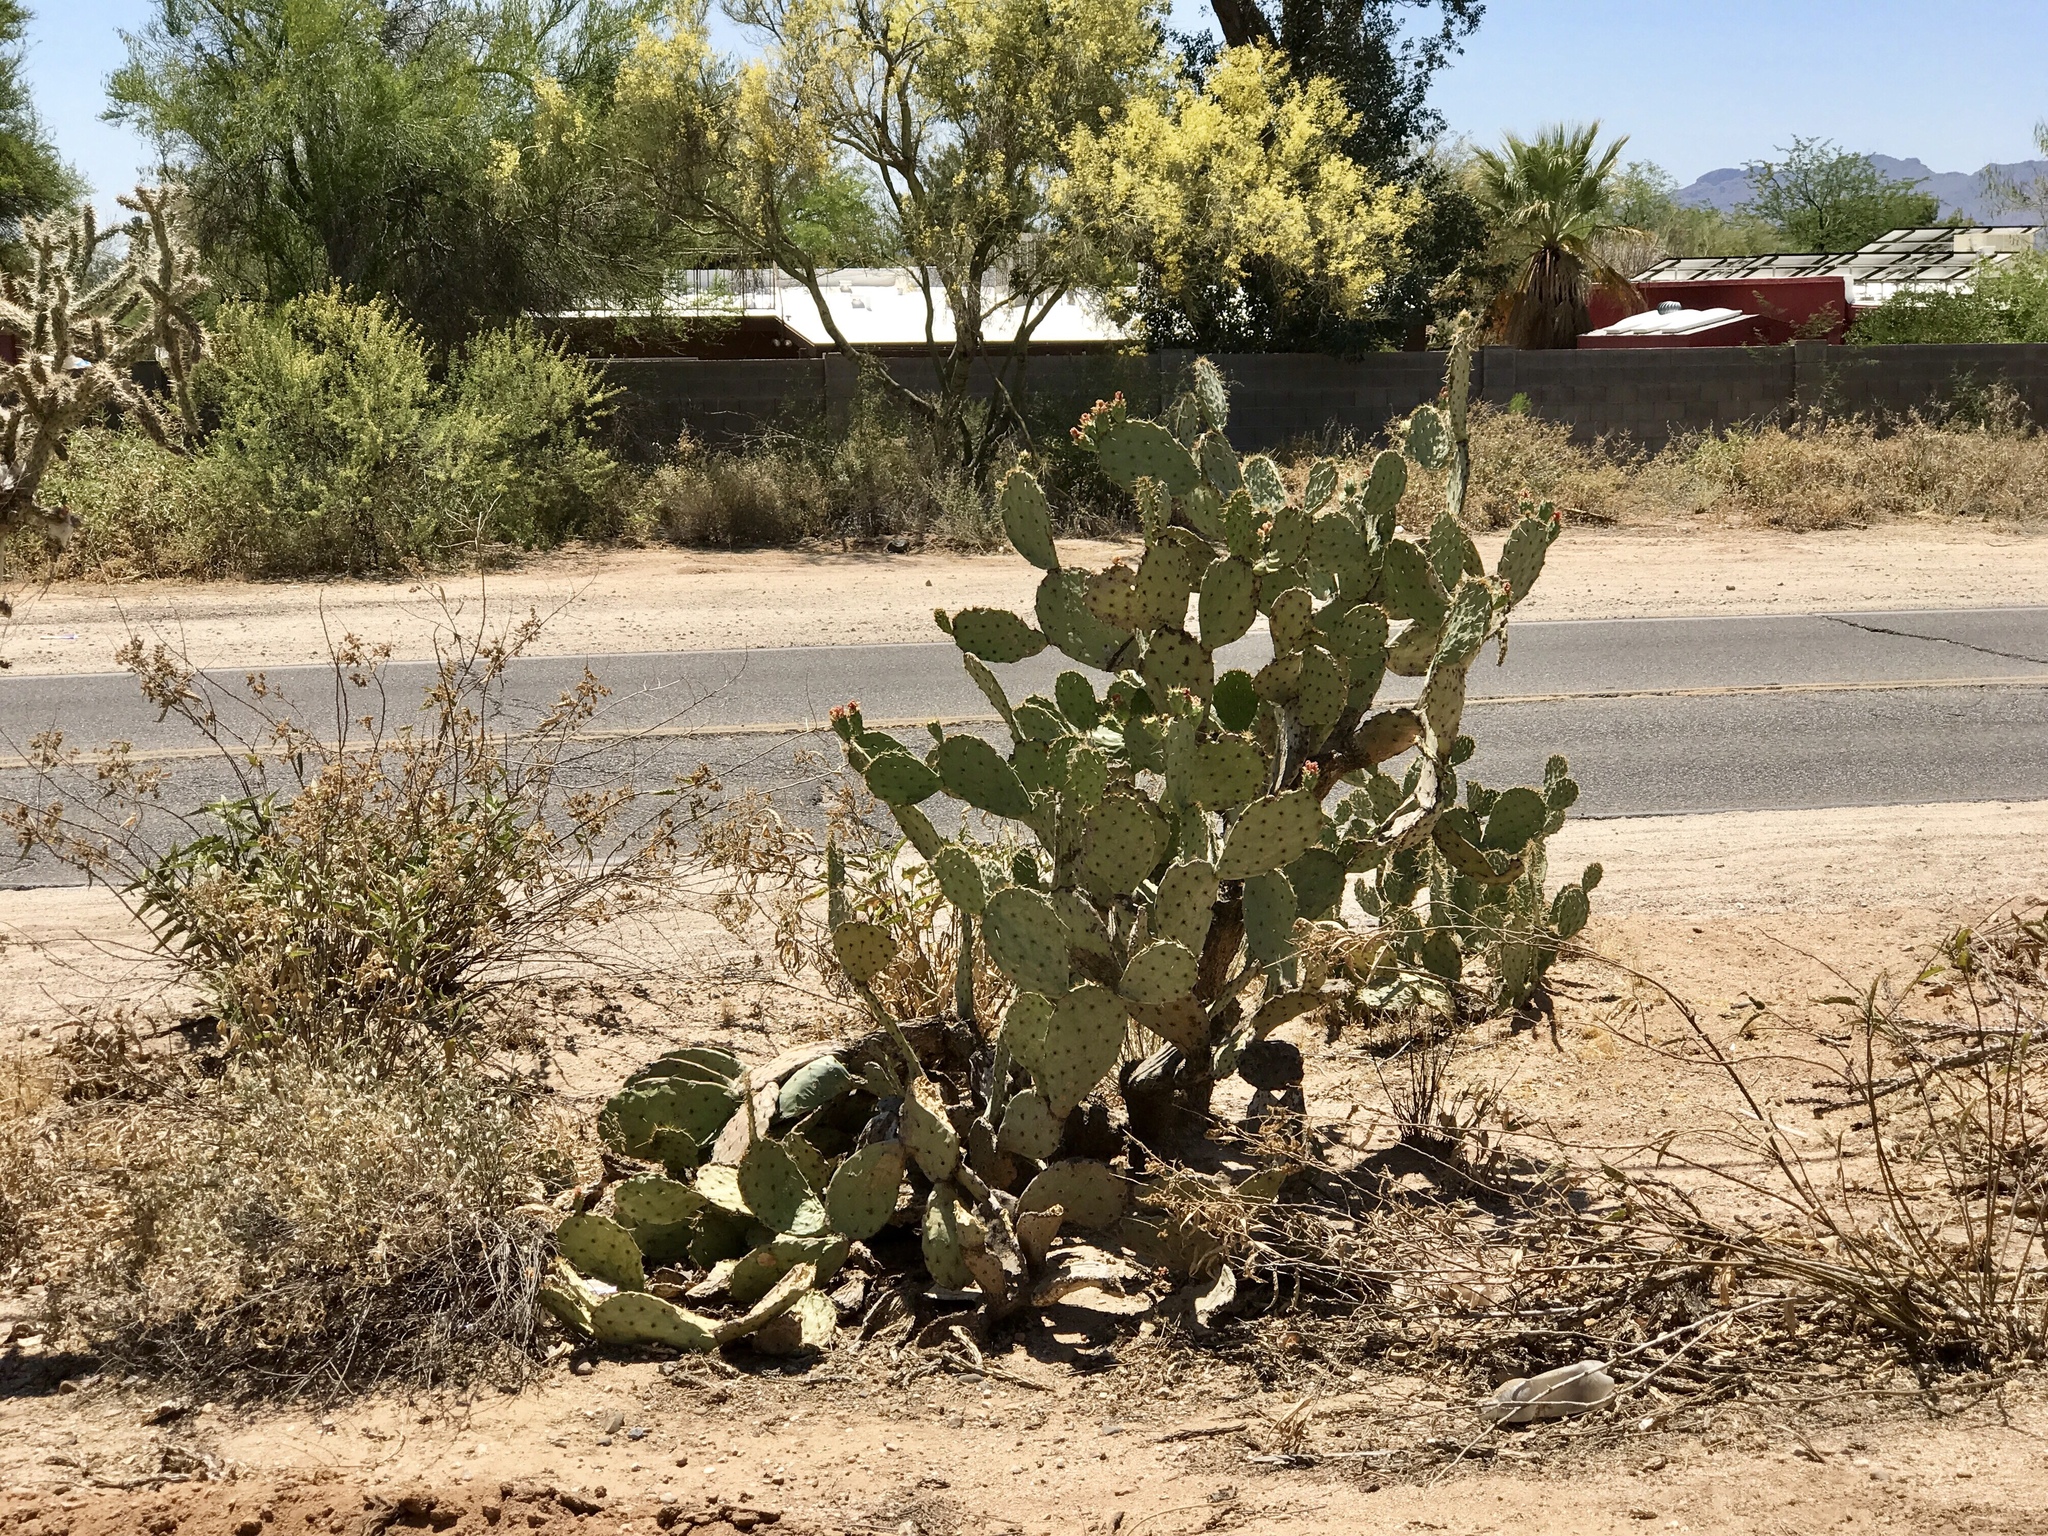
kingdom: Plantae
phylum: Tracheophyta
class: Magnoliopsida
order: Caryophyllales
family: Cactaceae
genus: Opuntia
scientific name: Opuntia engelmannii
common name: Cactus-apple
